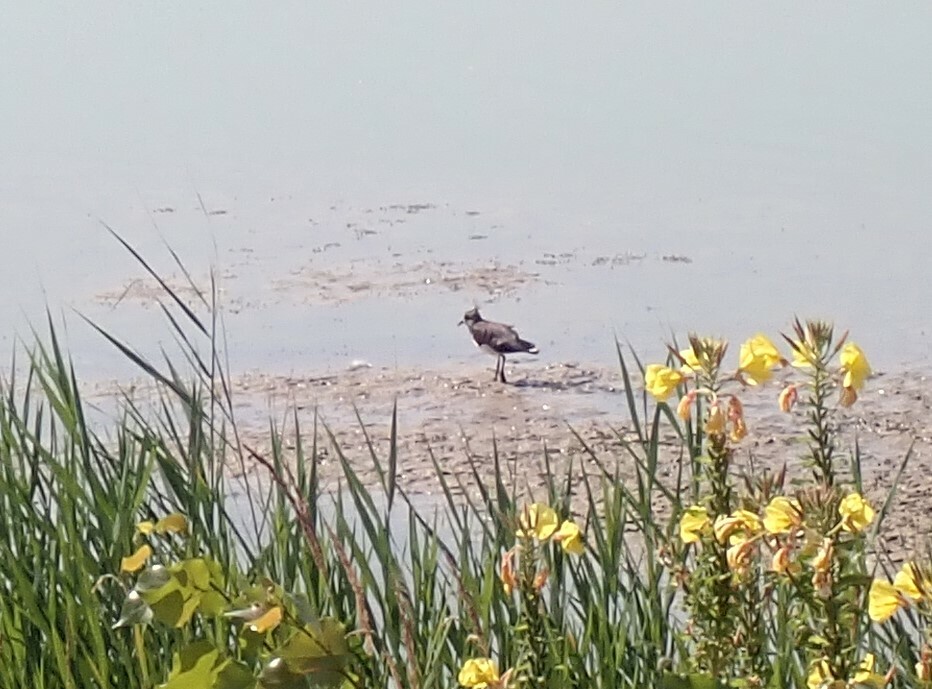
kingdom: Animalia
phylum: Chordata
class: Aves
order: Charadriiformes
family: Charadriidae
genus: Vanellus
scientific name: Vanellus vanellus
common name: Northern lapwing
